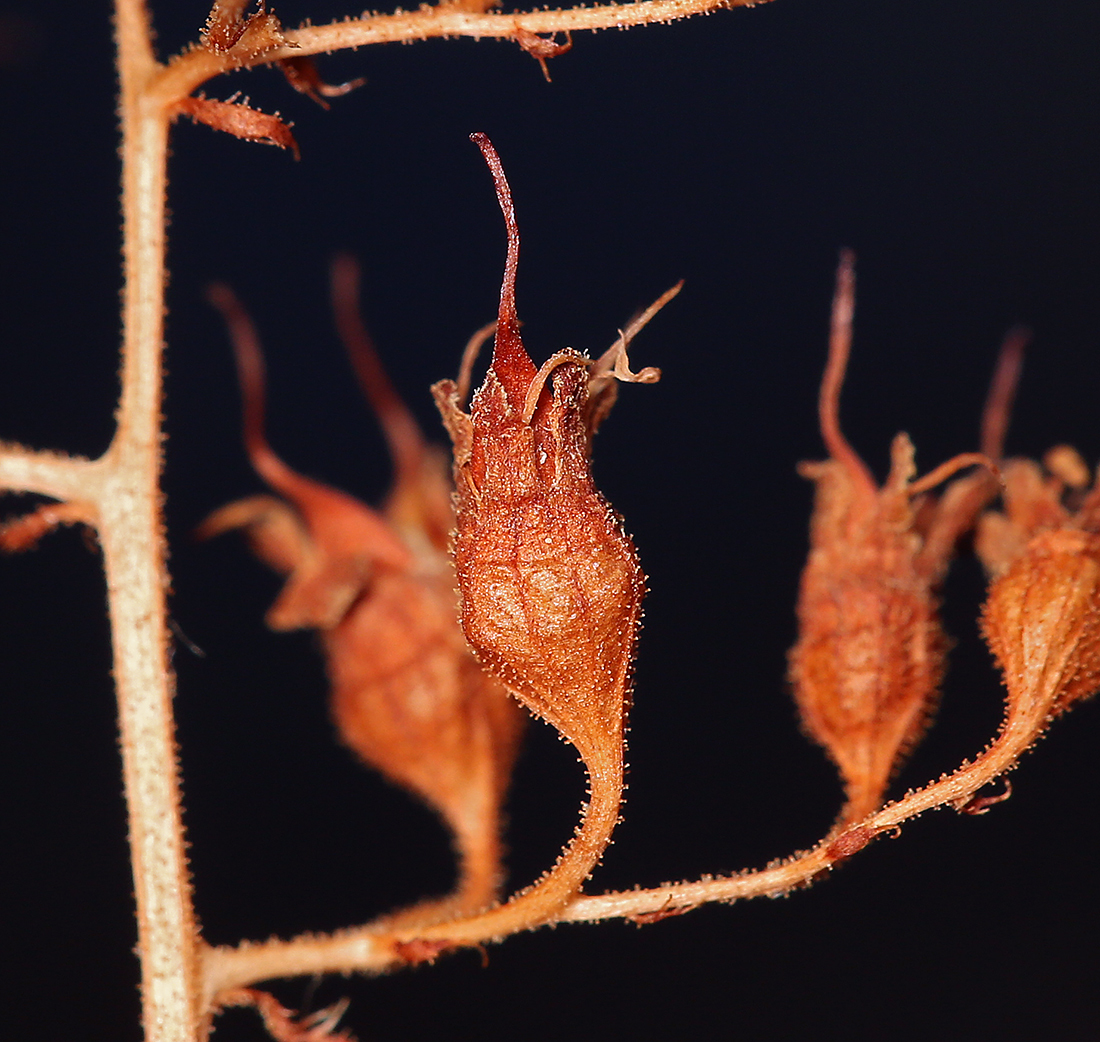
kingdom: Plantae
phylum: Tracheophyta
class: Magnoliopsida
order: Saxifragales
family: Saxifragaceae
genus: Heuchera
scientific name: Heuchera rubescens
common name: Jack-o'the-rocks
